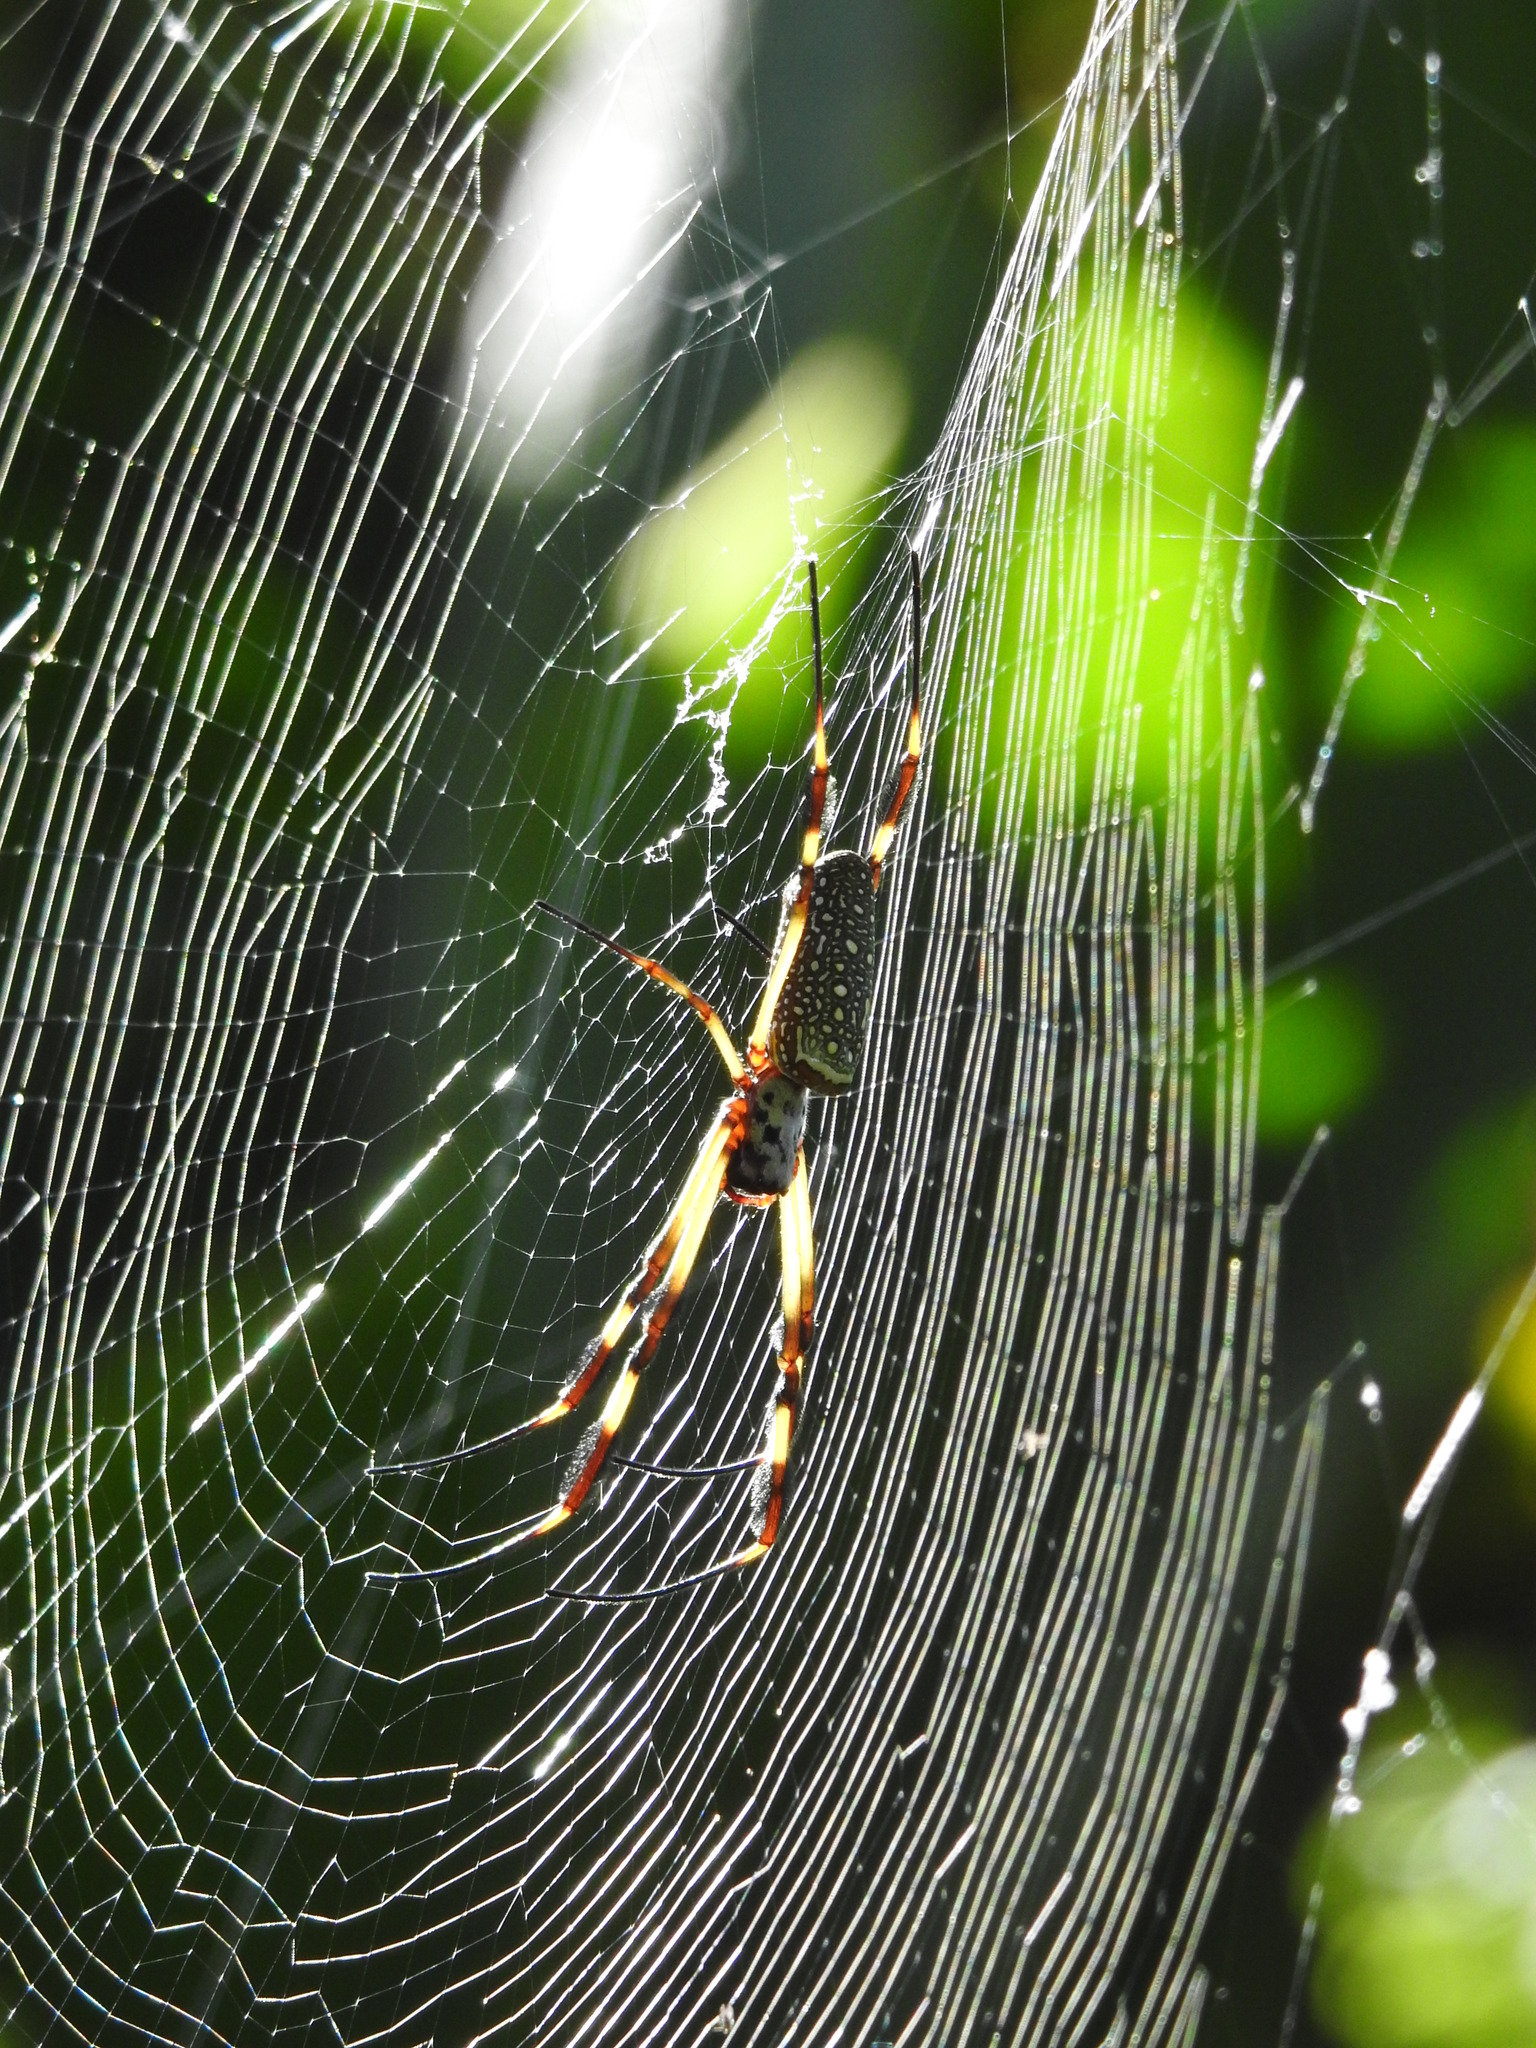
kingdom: Animalia
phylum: Arthropoda
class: Arachnida
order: Araneae
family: Araneidae
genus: Trichonephila
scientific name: Trichonephila clavipes
